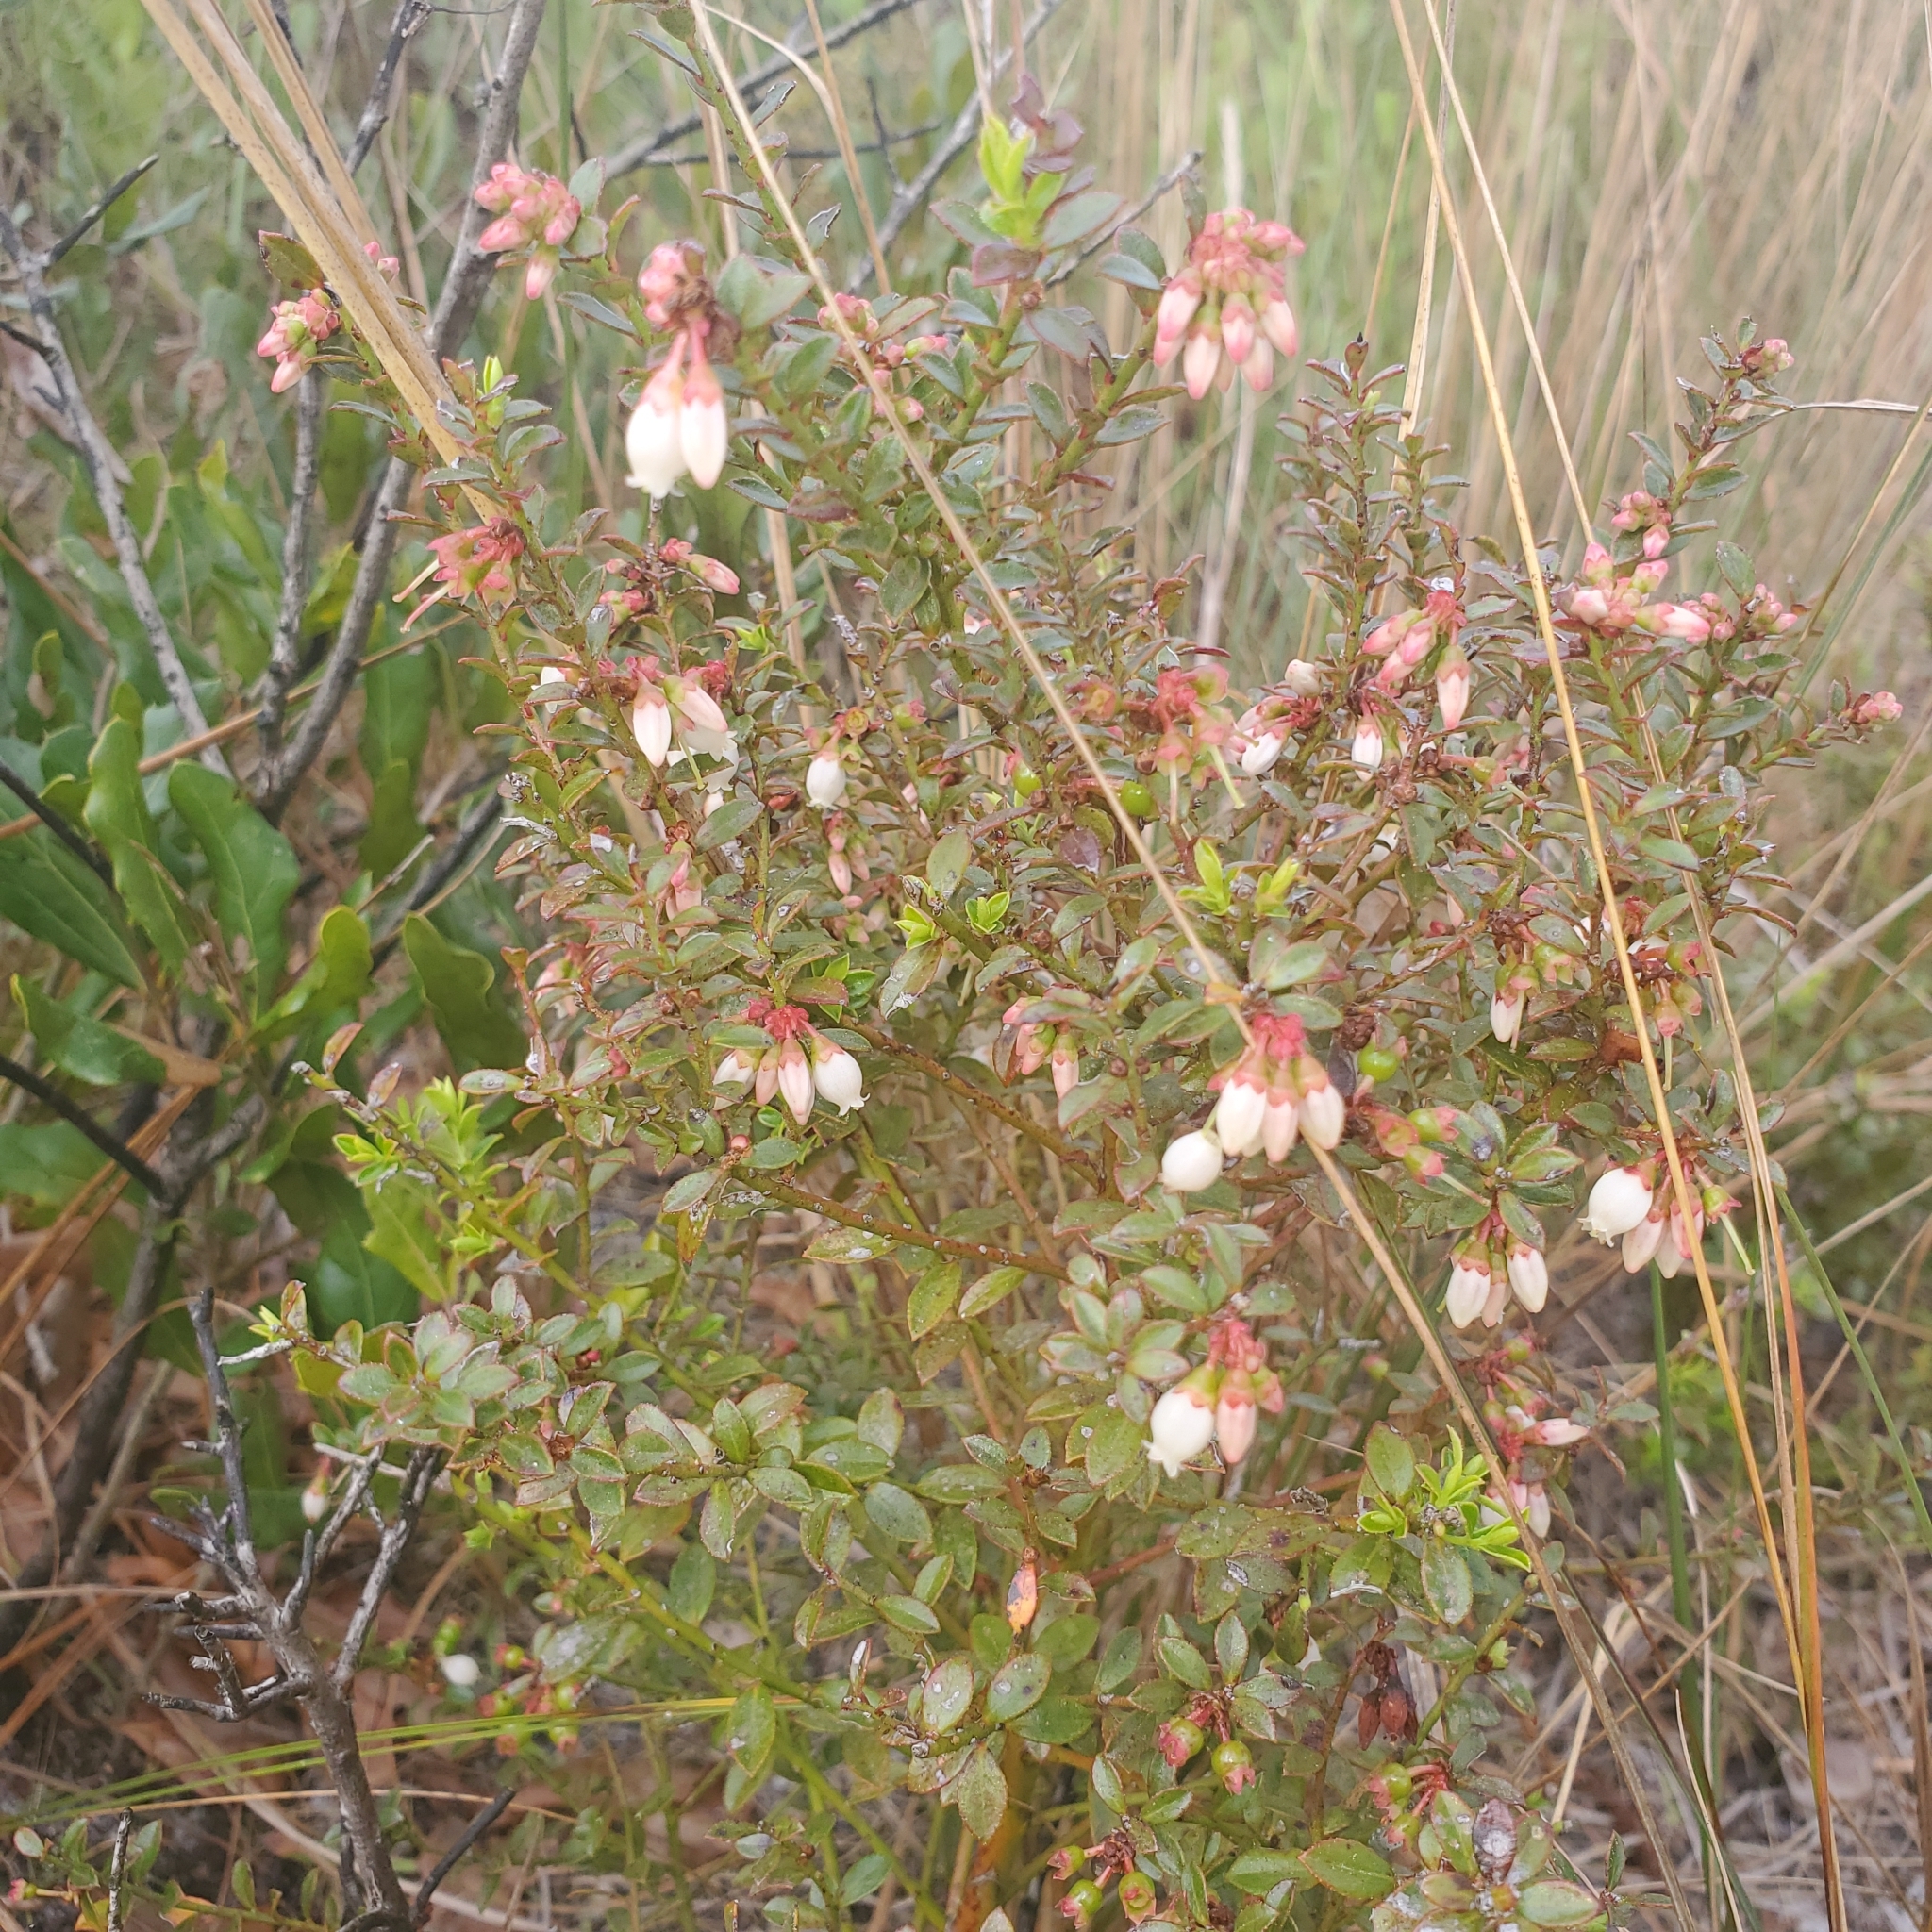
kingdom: Plantae
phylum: Tracheophyta
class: Magnoliopsida
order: Ericales
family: Ericaceae
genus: Vaccinium
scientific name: Vaccinium myrsinites
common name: Evergreen blueberry
